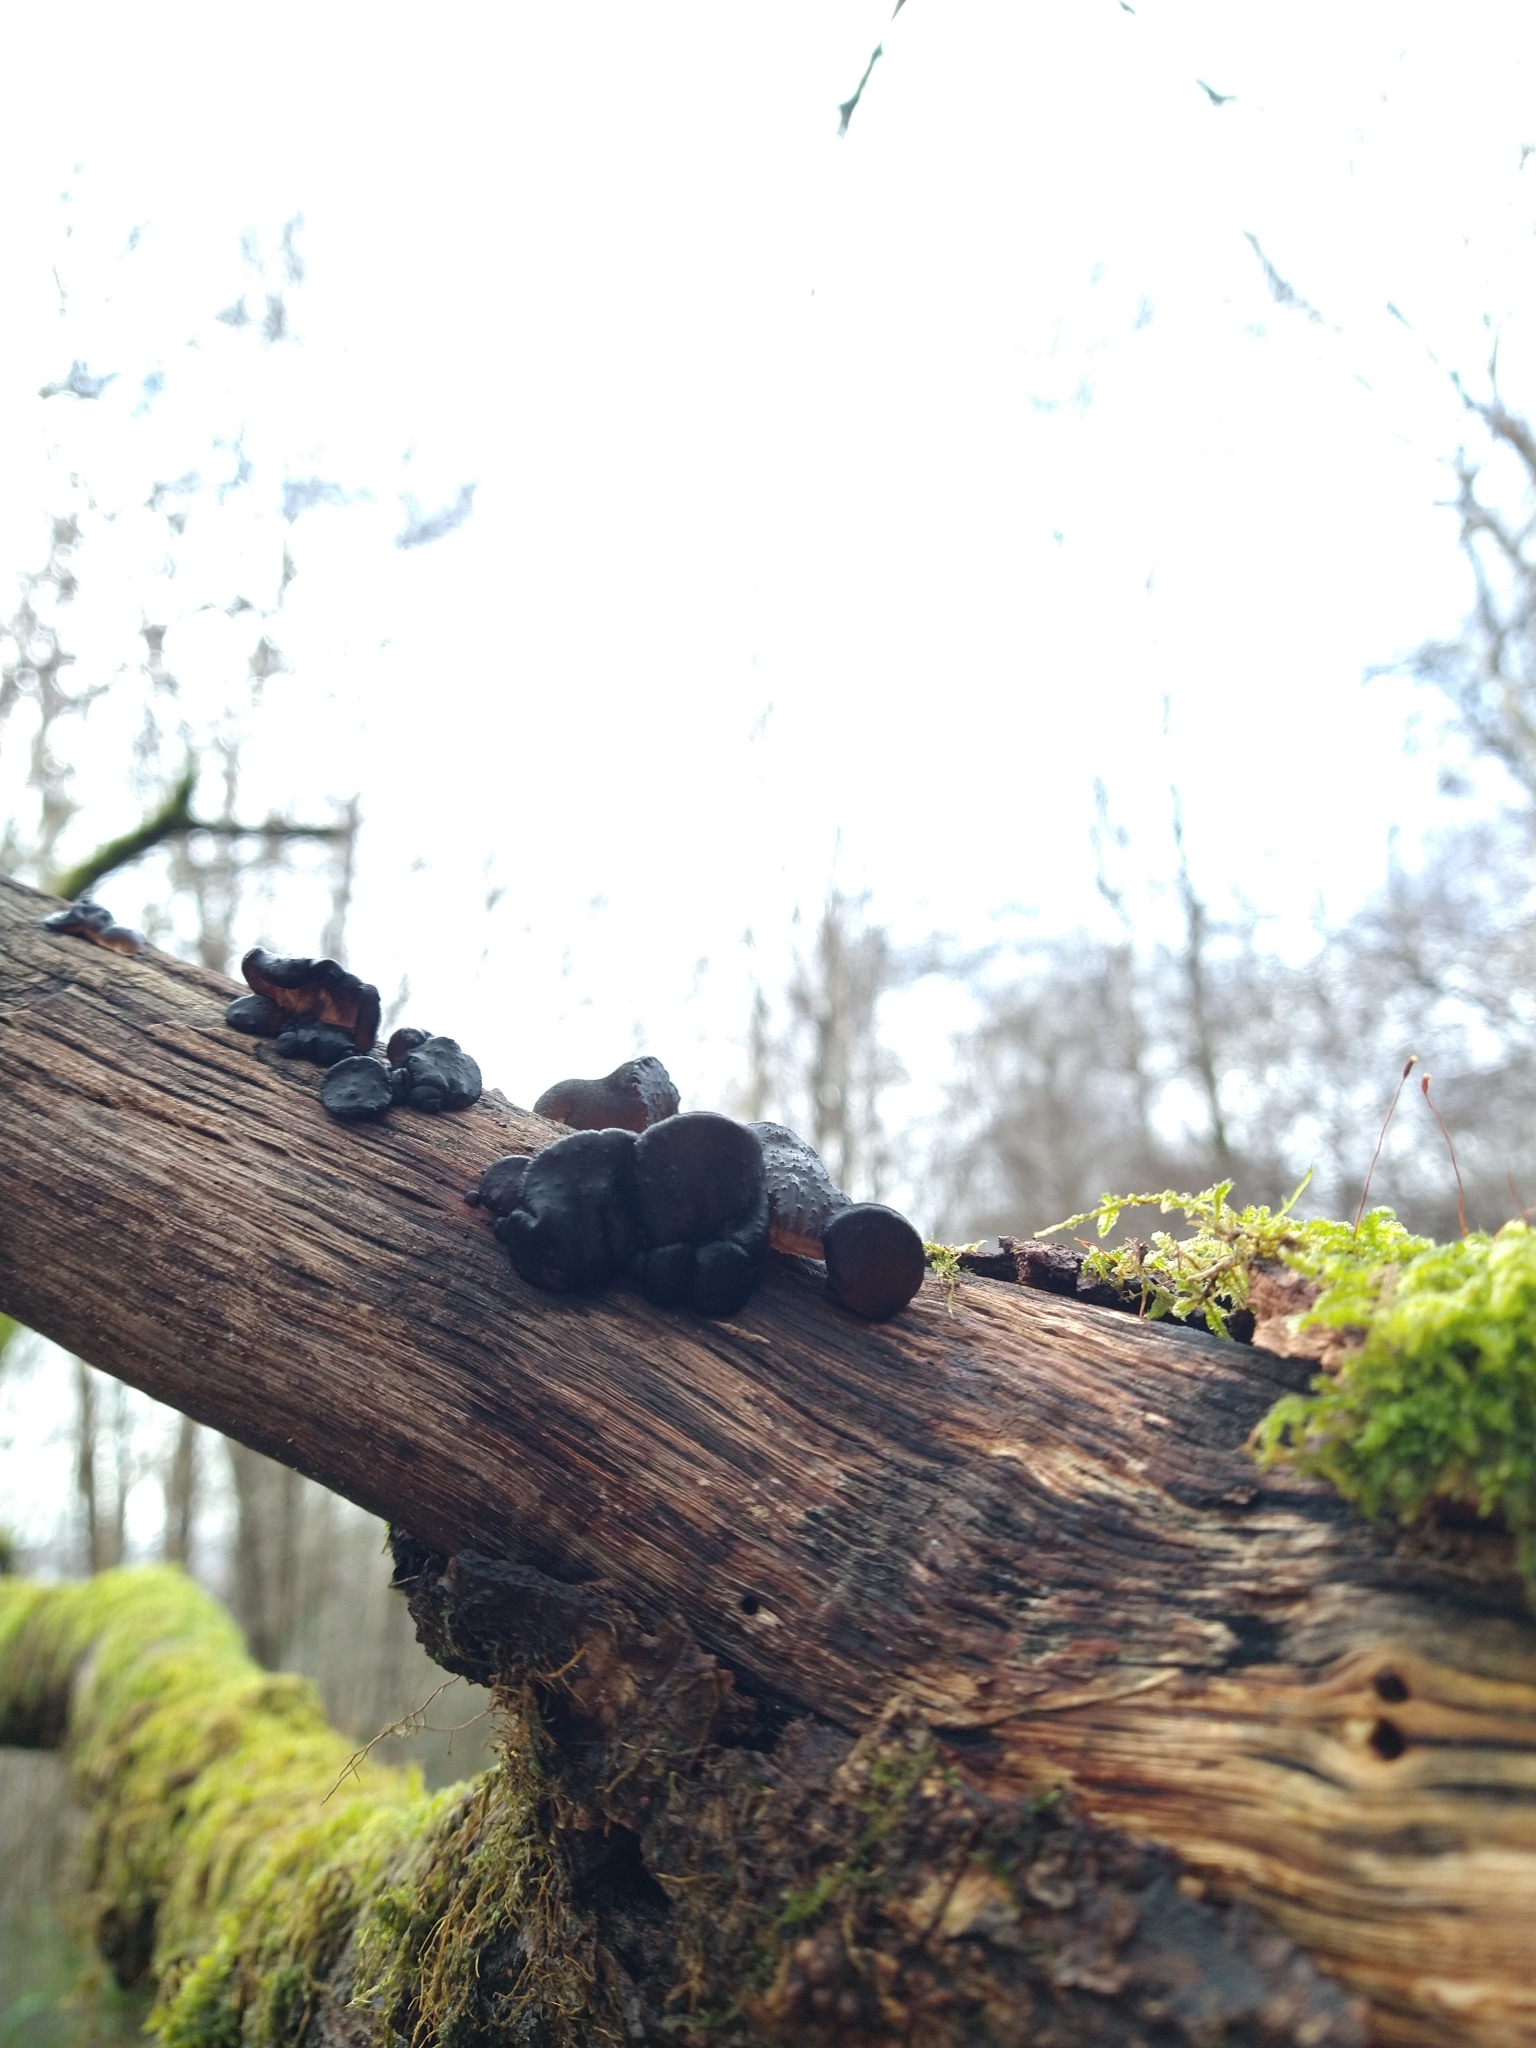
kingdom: Fungi
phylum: Basidiomycota
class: Agaricomycetes
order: Auriculariales
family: Auriculariaceae
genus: Exidia
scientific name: Exidia glandulosa
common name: Witches' butter
